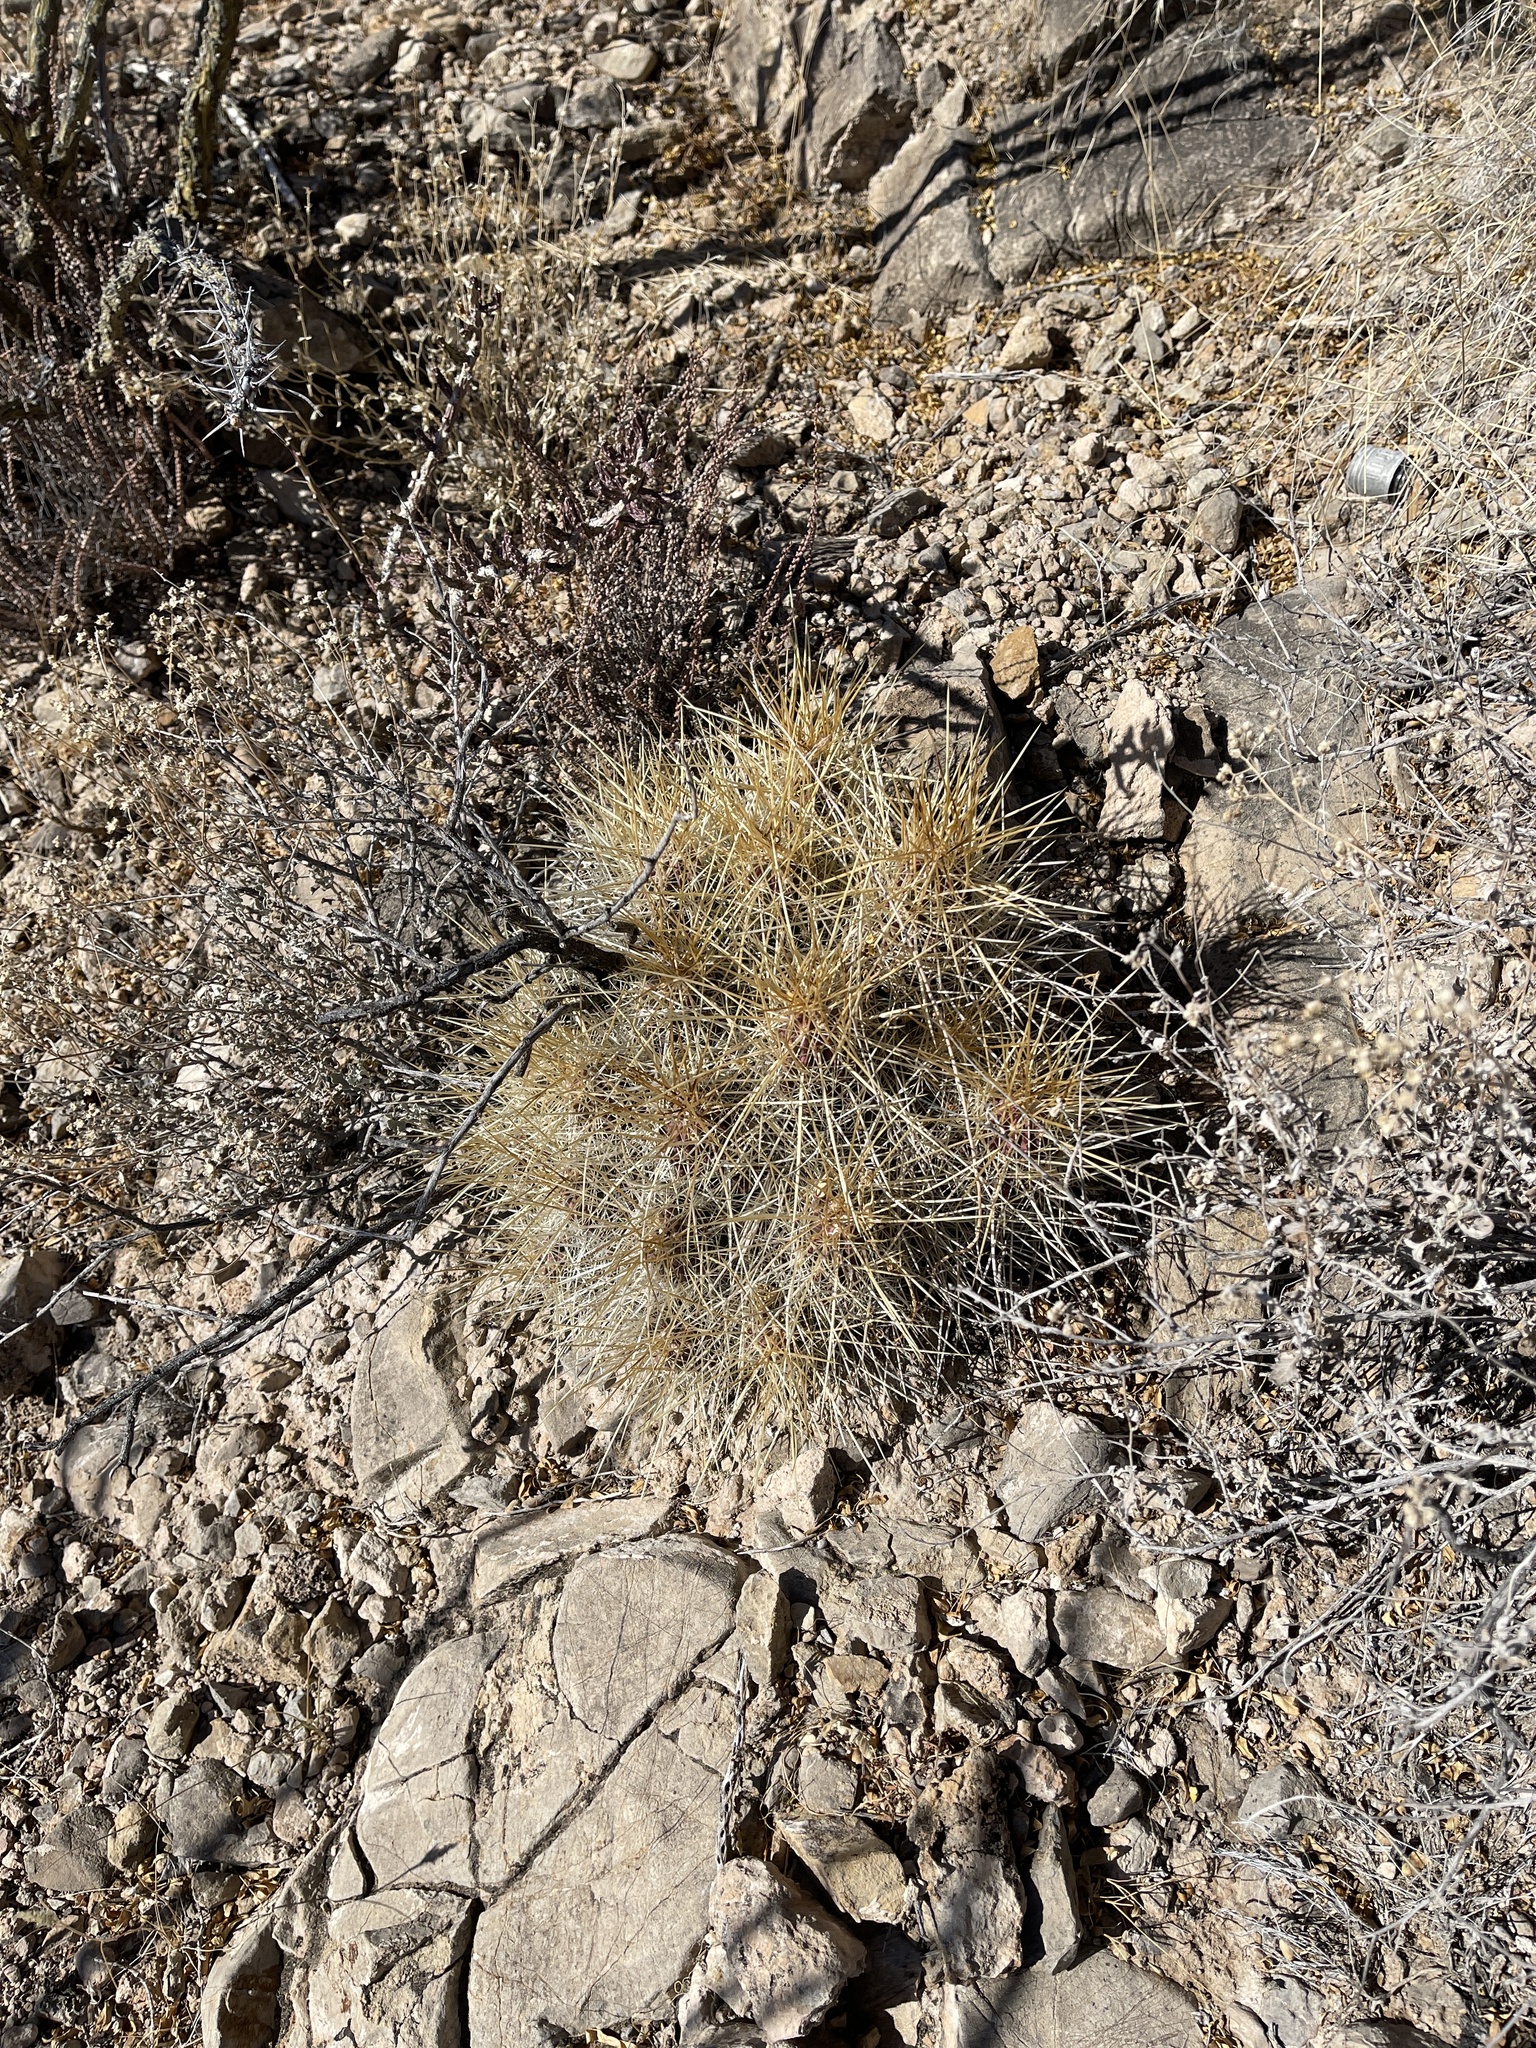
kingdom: Plantae
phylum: Tracheophyta
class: Magnoliopsida
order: Caryophyllales
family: Cactaceae
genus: Echinocereus
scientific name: Echinocereus stramineus
